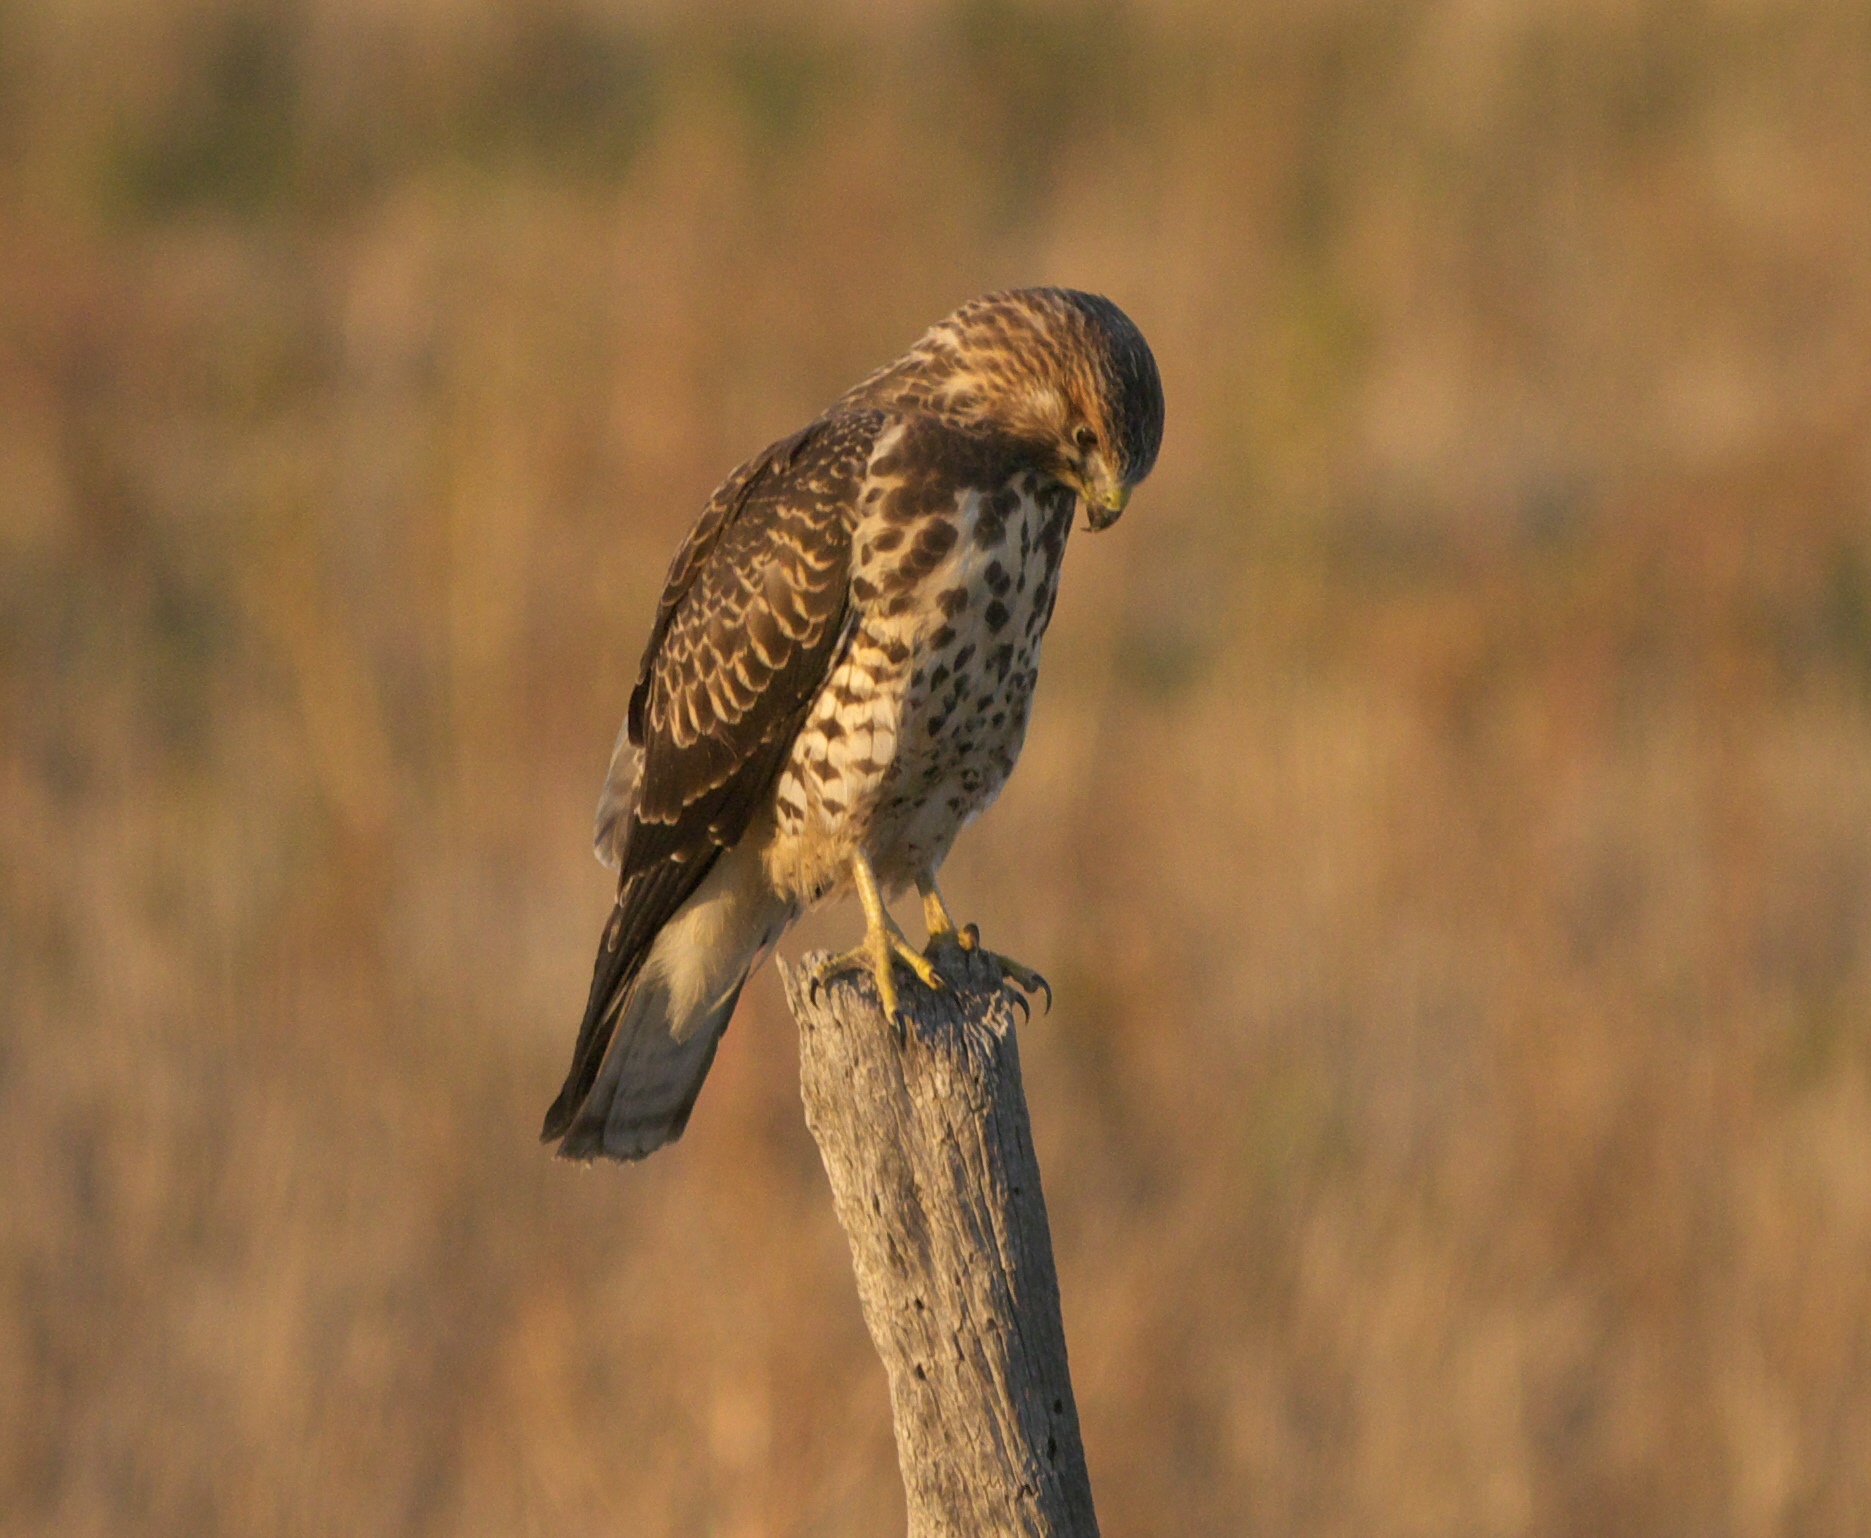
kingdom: Animalia
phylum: Chordata
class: Aves
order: Accipitriformes
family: Accipitridae
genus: Buteo
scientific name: Buteo platypterus
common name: Broad-winged hawk
